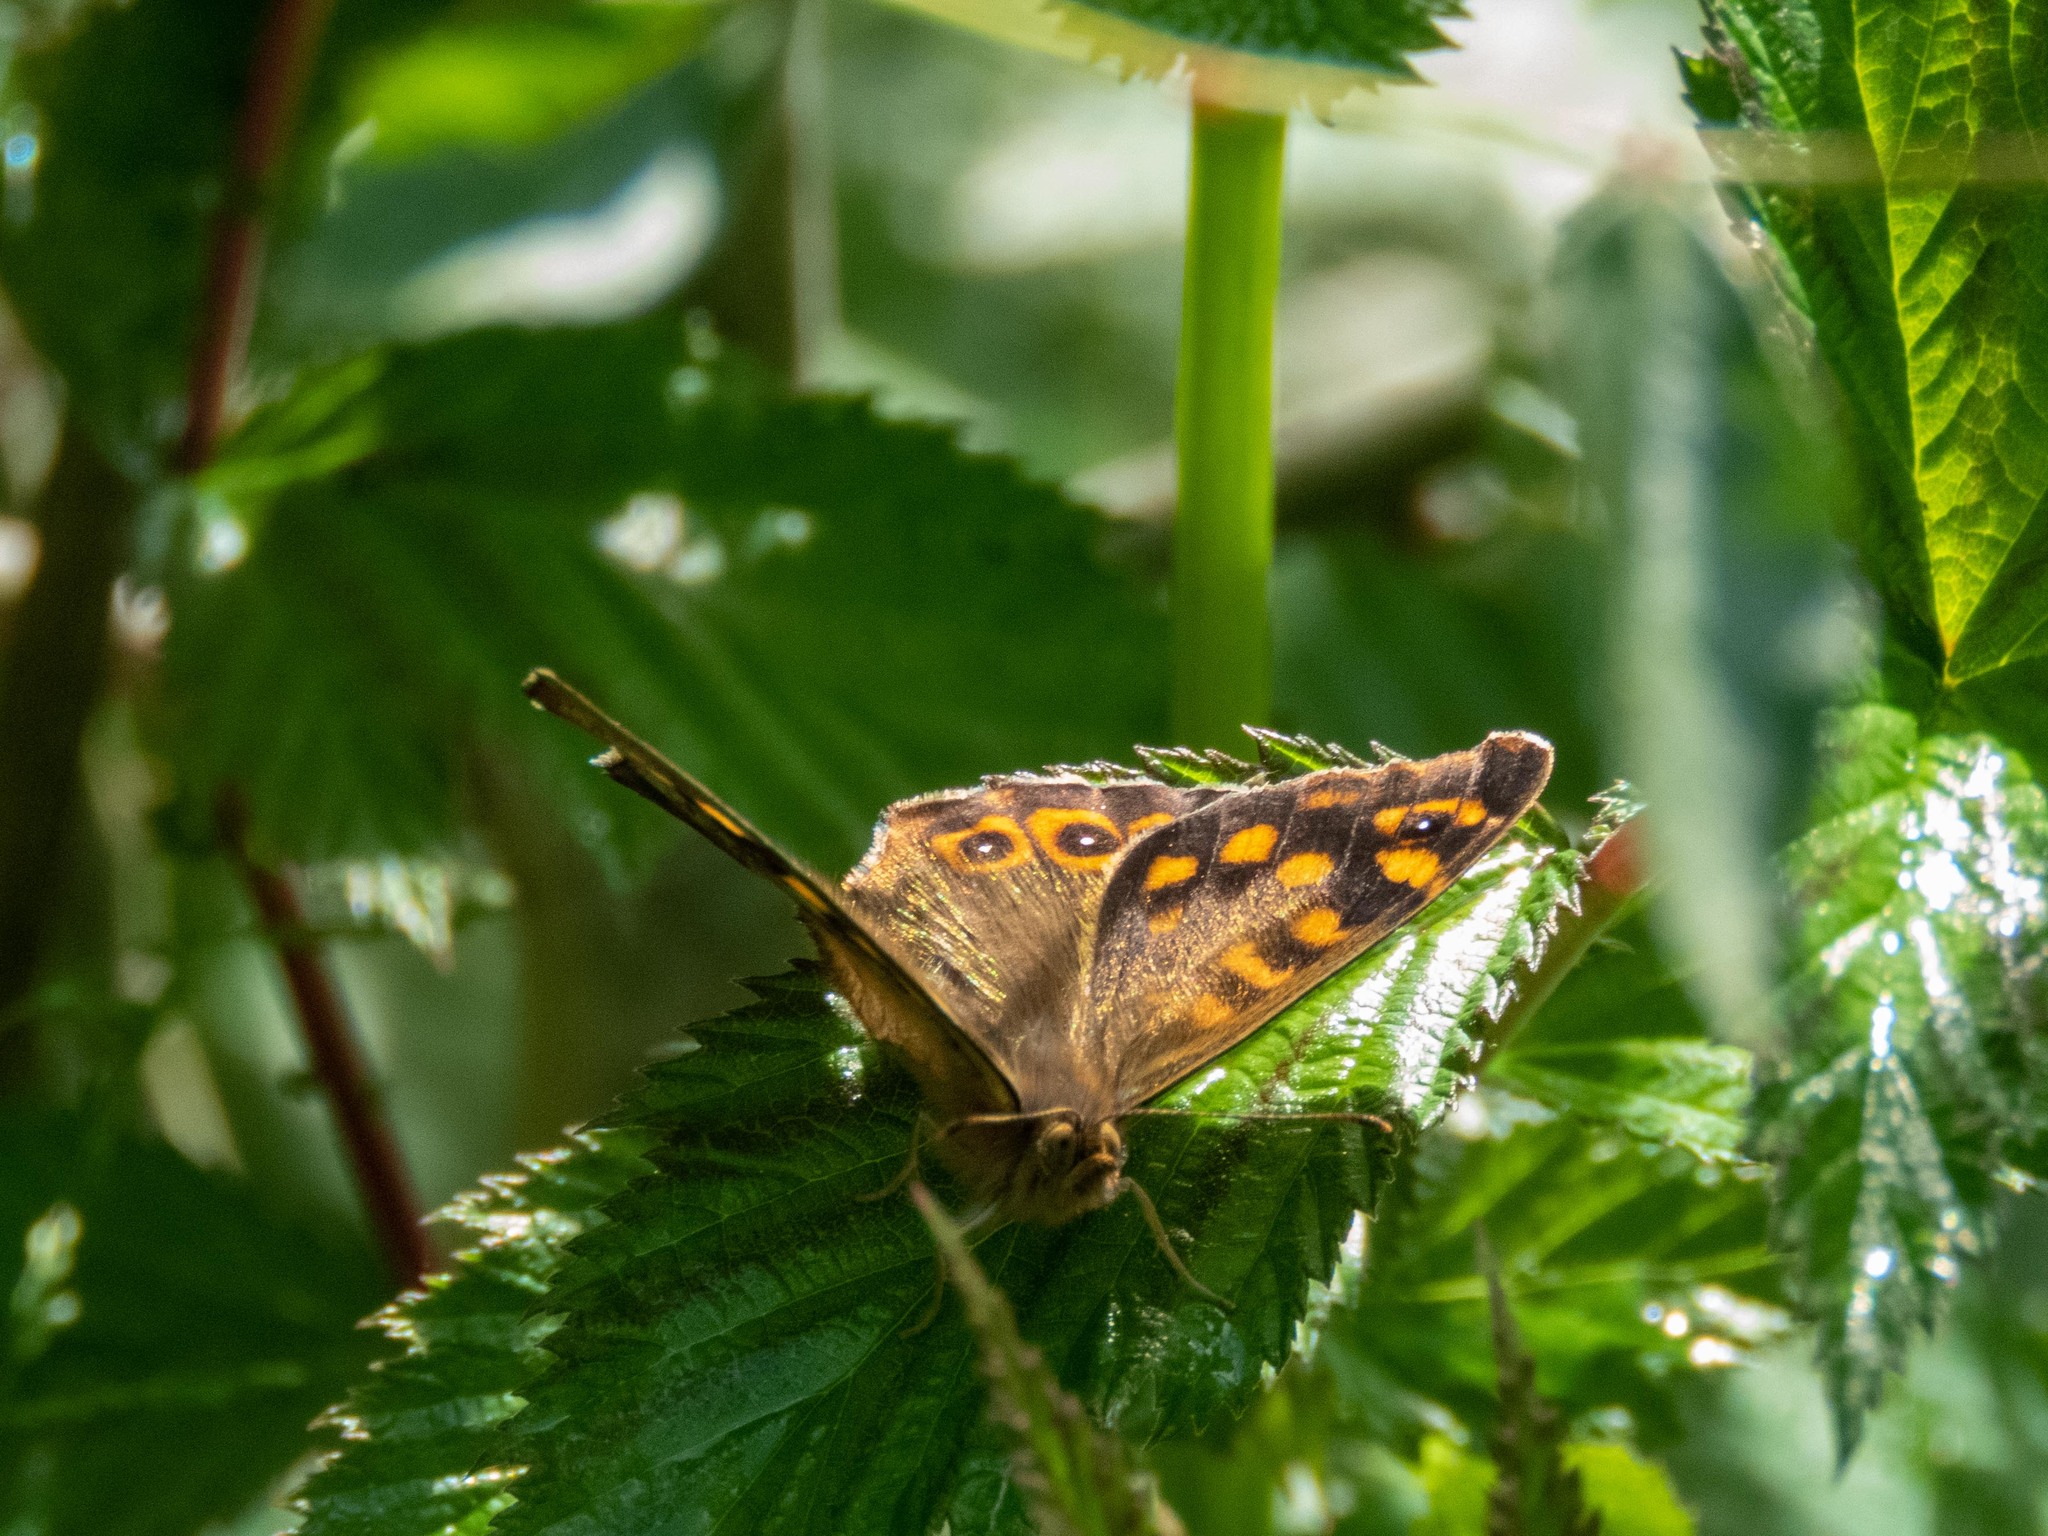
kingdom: Animalia
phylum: Arthropoda
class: Insecta
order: Lepidoptera
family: Nymphalidae
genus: Pararge
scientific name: Pararge aegeria
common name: Speckled wood
